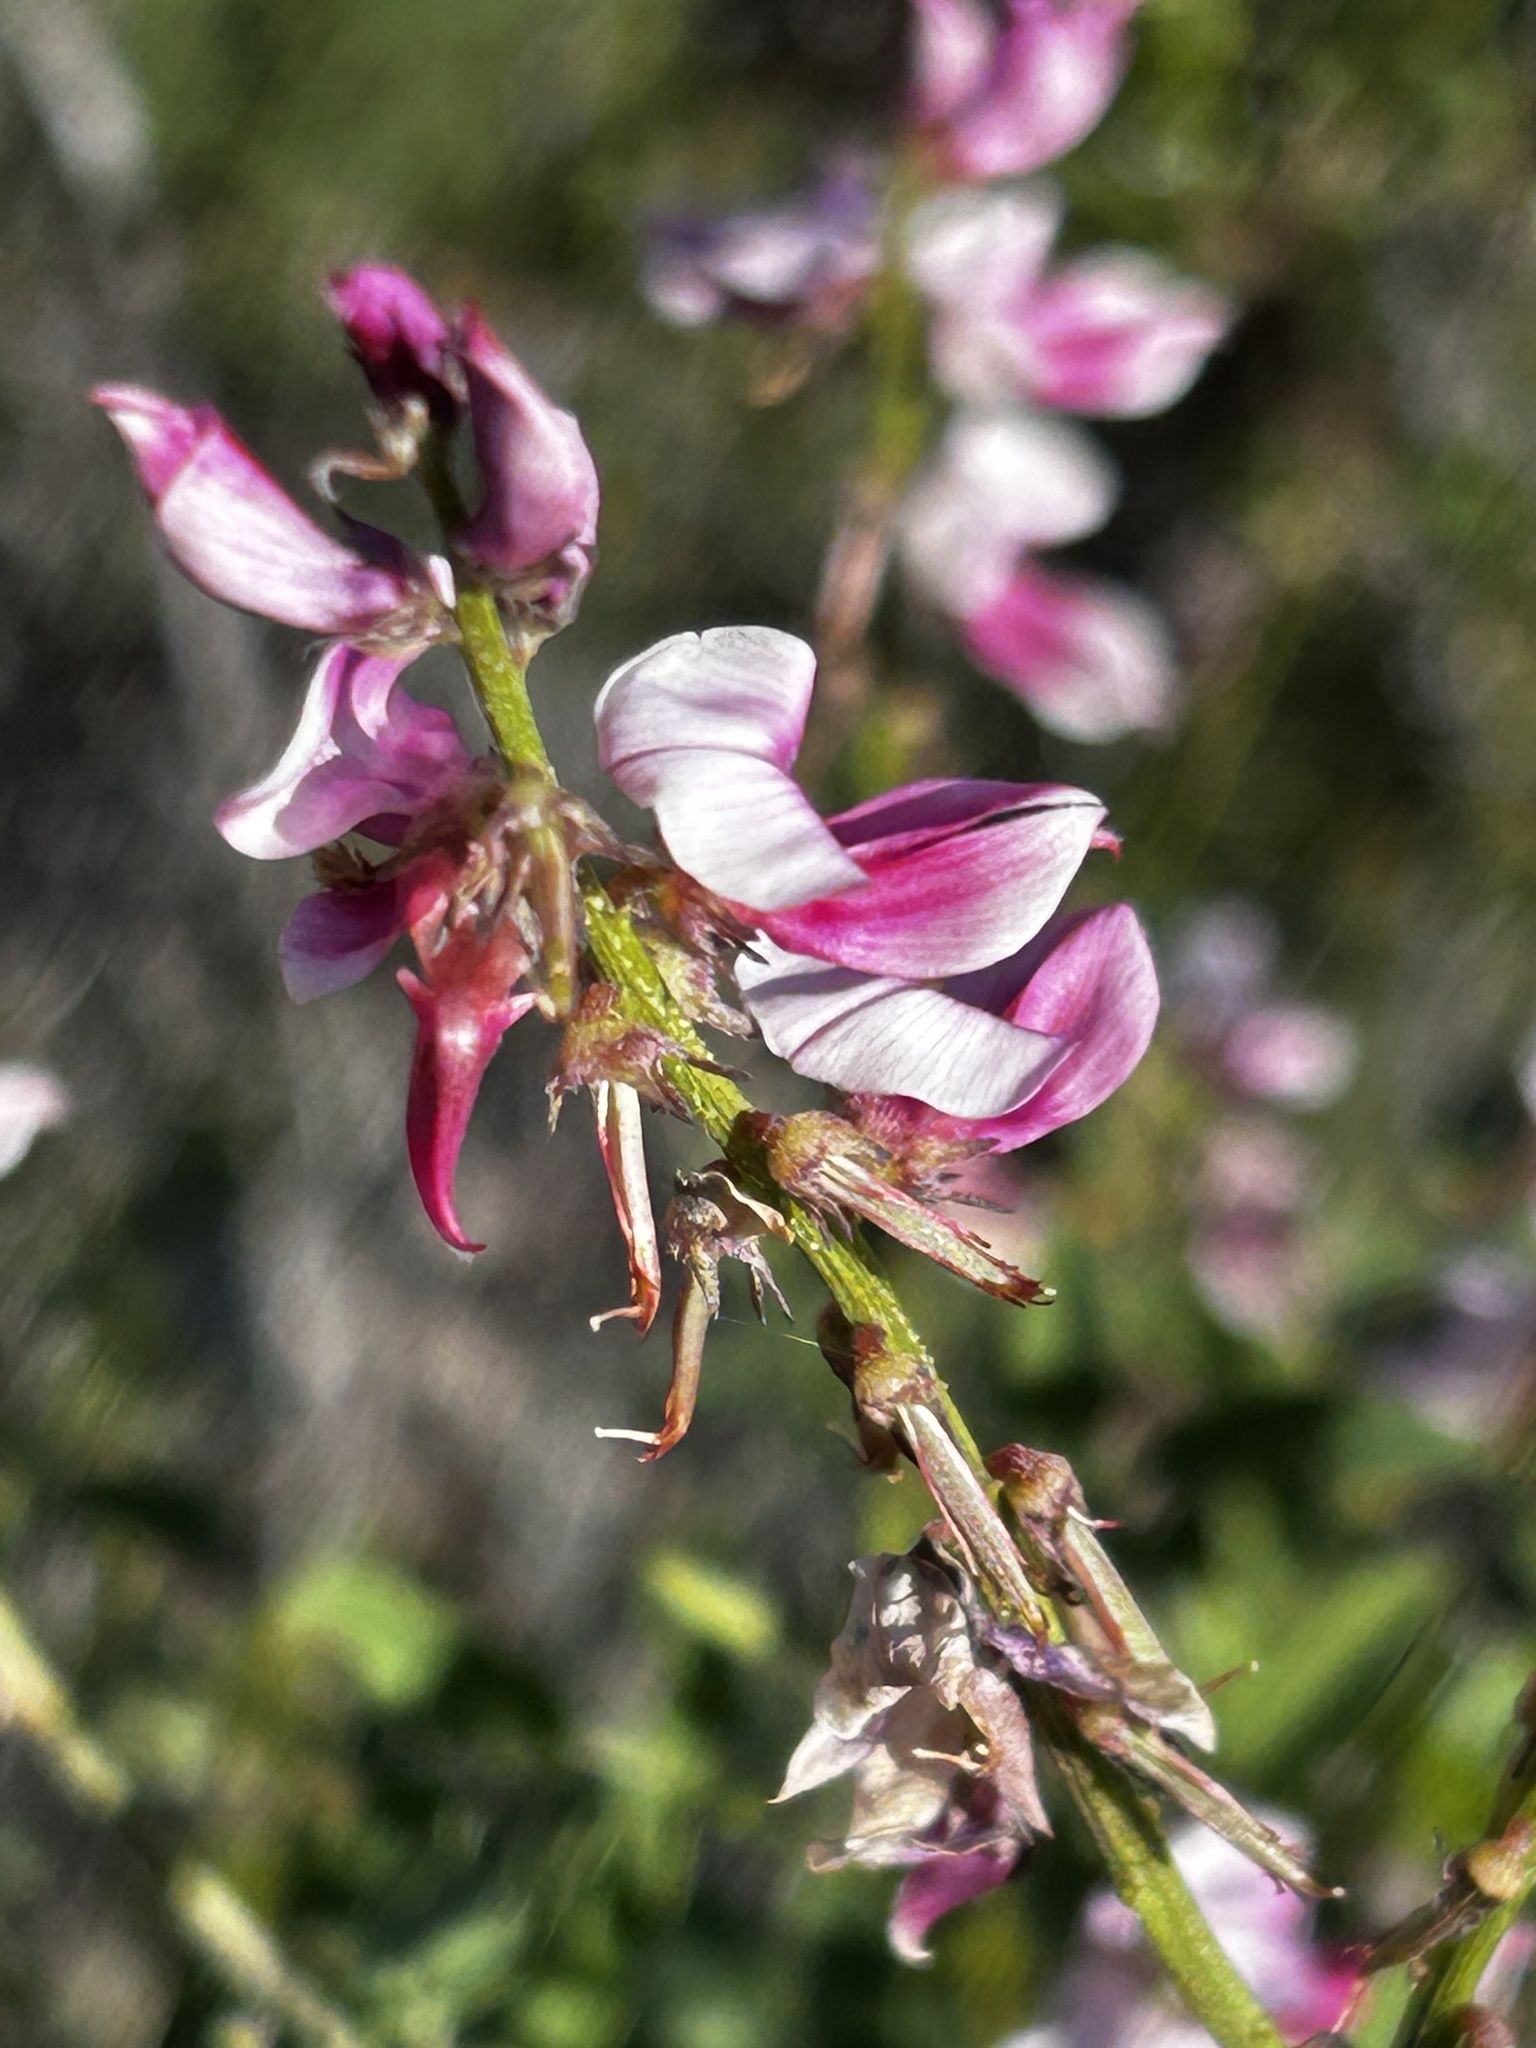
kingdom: Plantae
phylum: Tracheophyta
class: Magnoliopsida
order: Fabales
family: Fabaceae
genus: Indigofera
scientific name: Indigofera amoena
